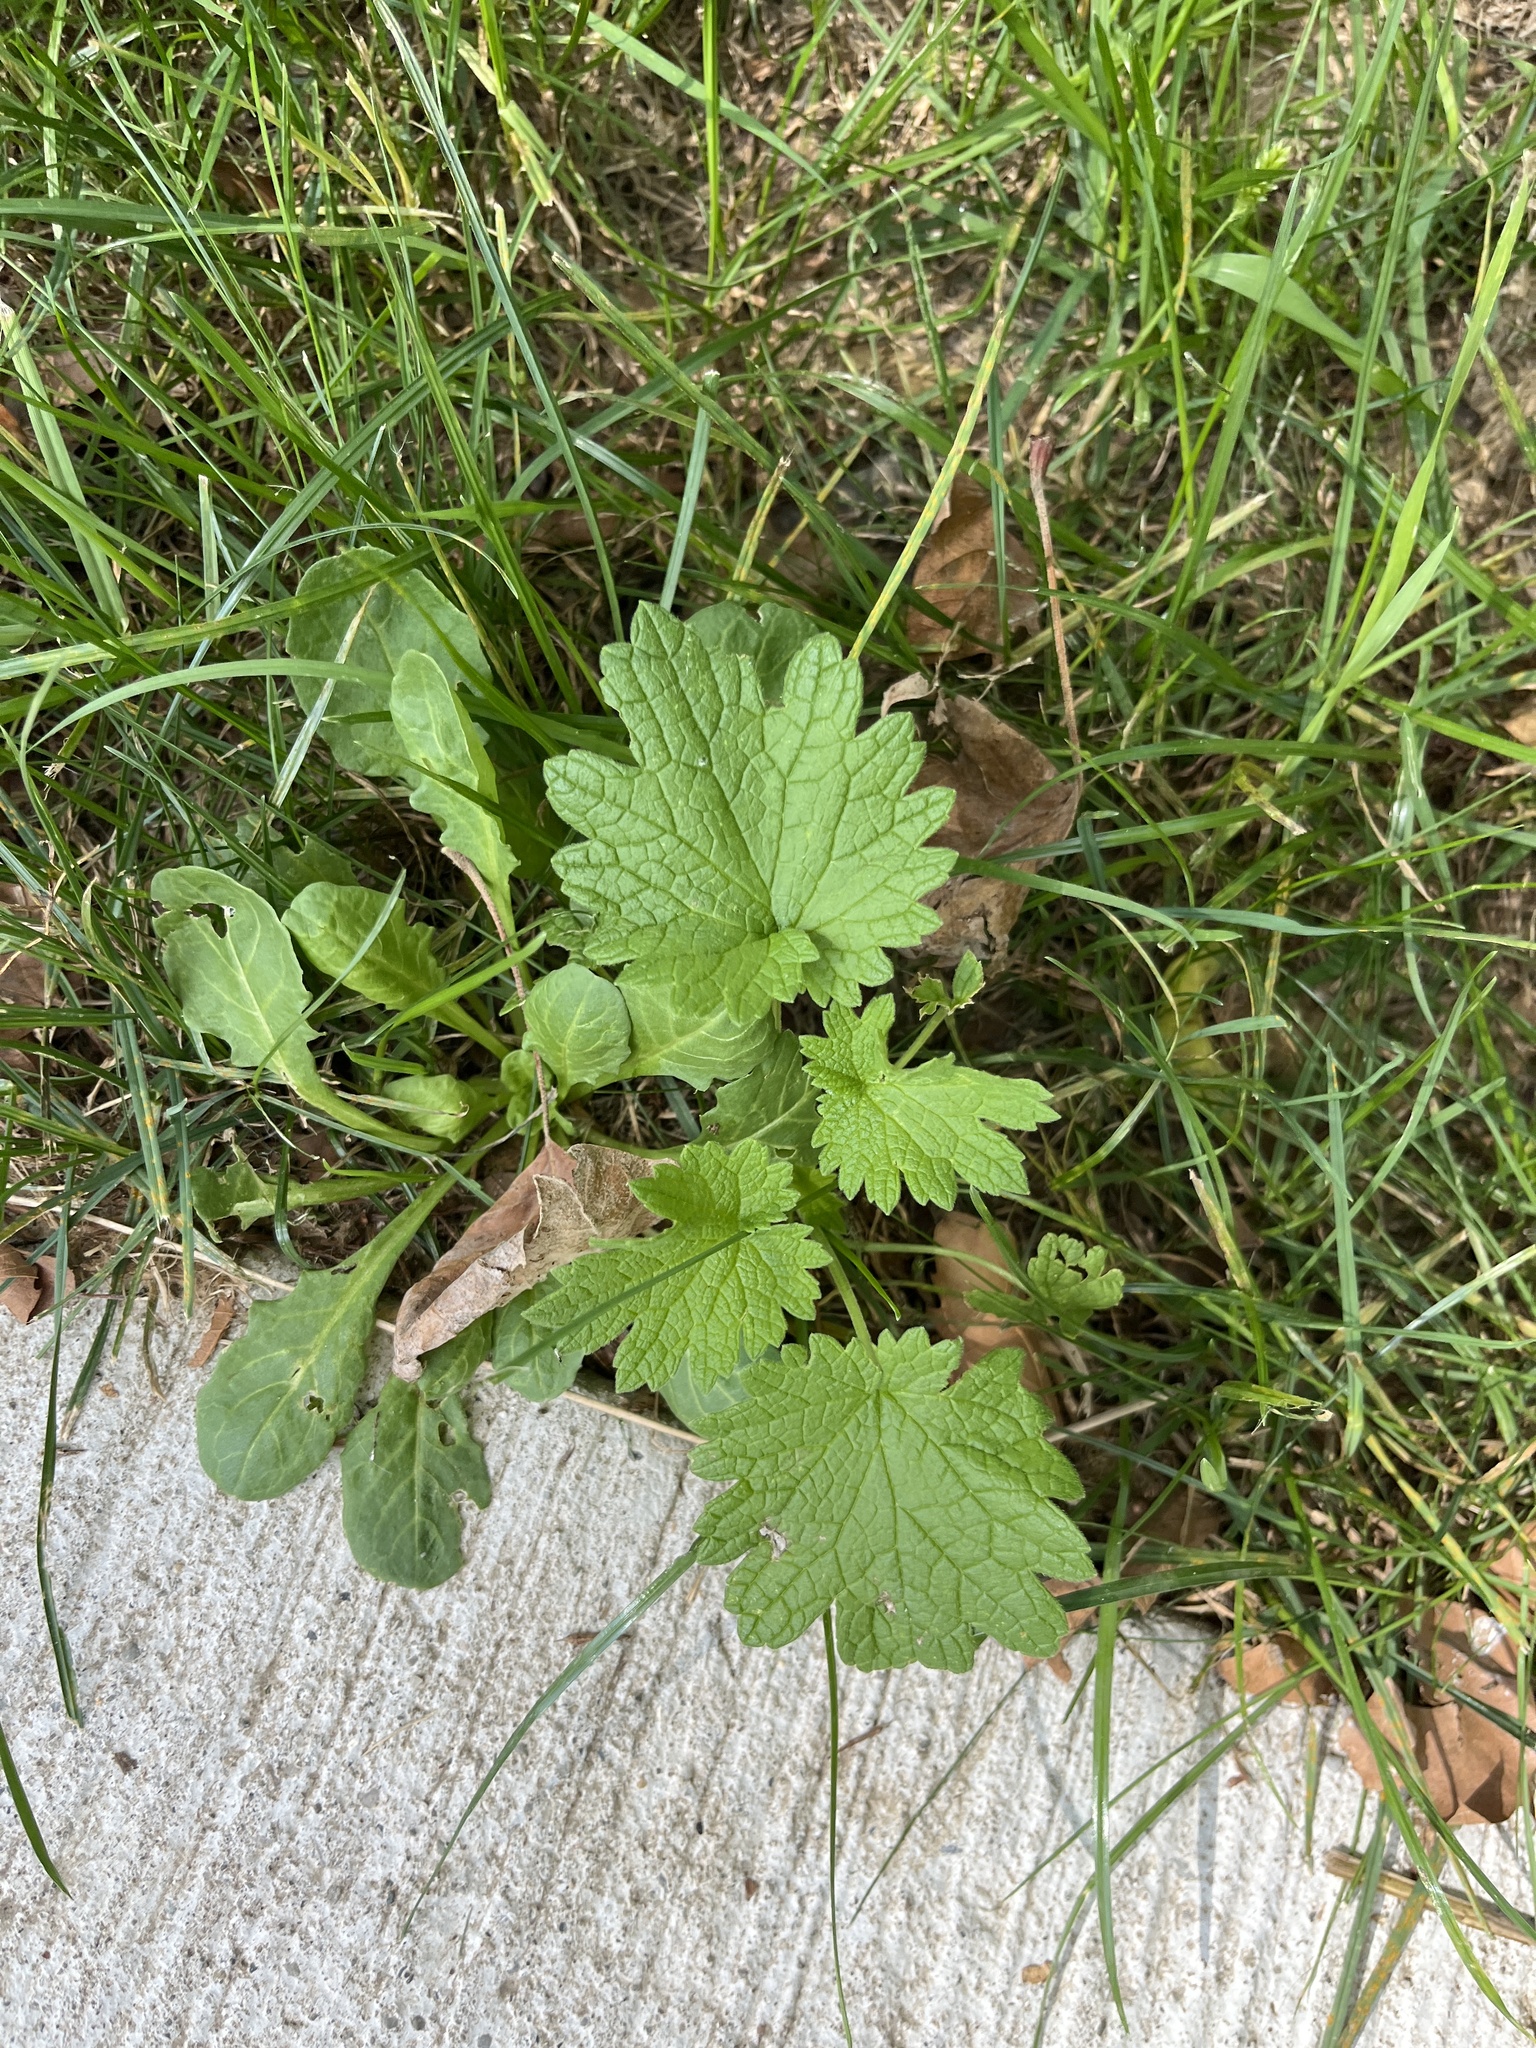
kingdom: Plantae
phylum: Tracheophyta
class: Magnoliopsida
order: Lamiales
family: Lamiaceae
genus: Leonurus
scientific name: Leonurus cardiaca
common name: Motherwort
